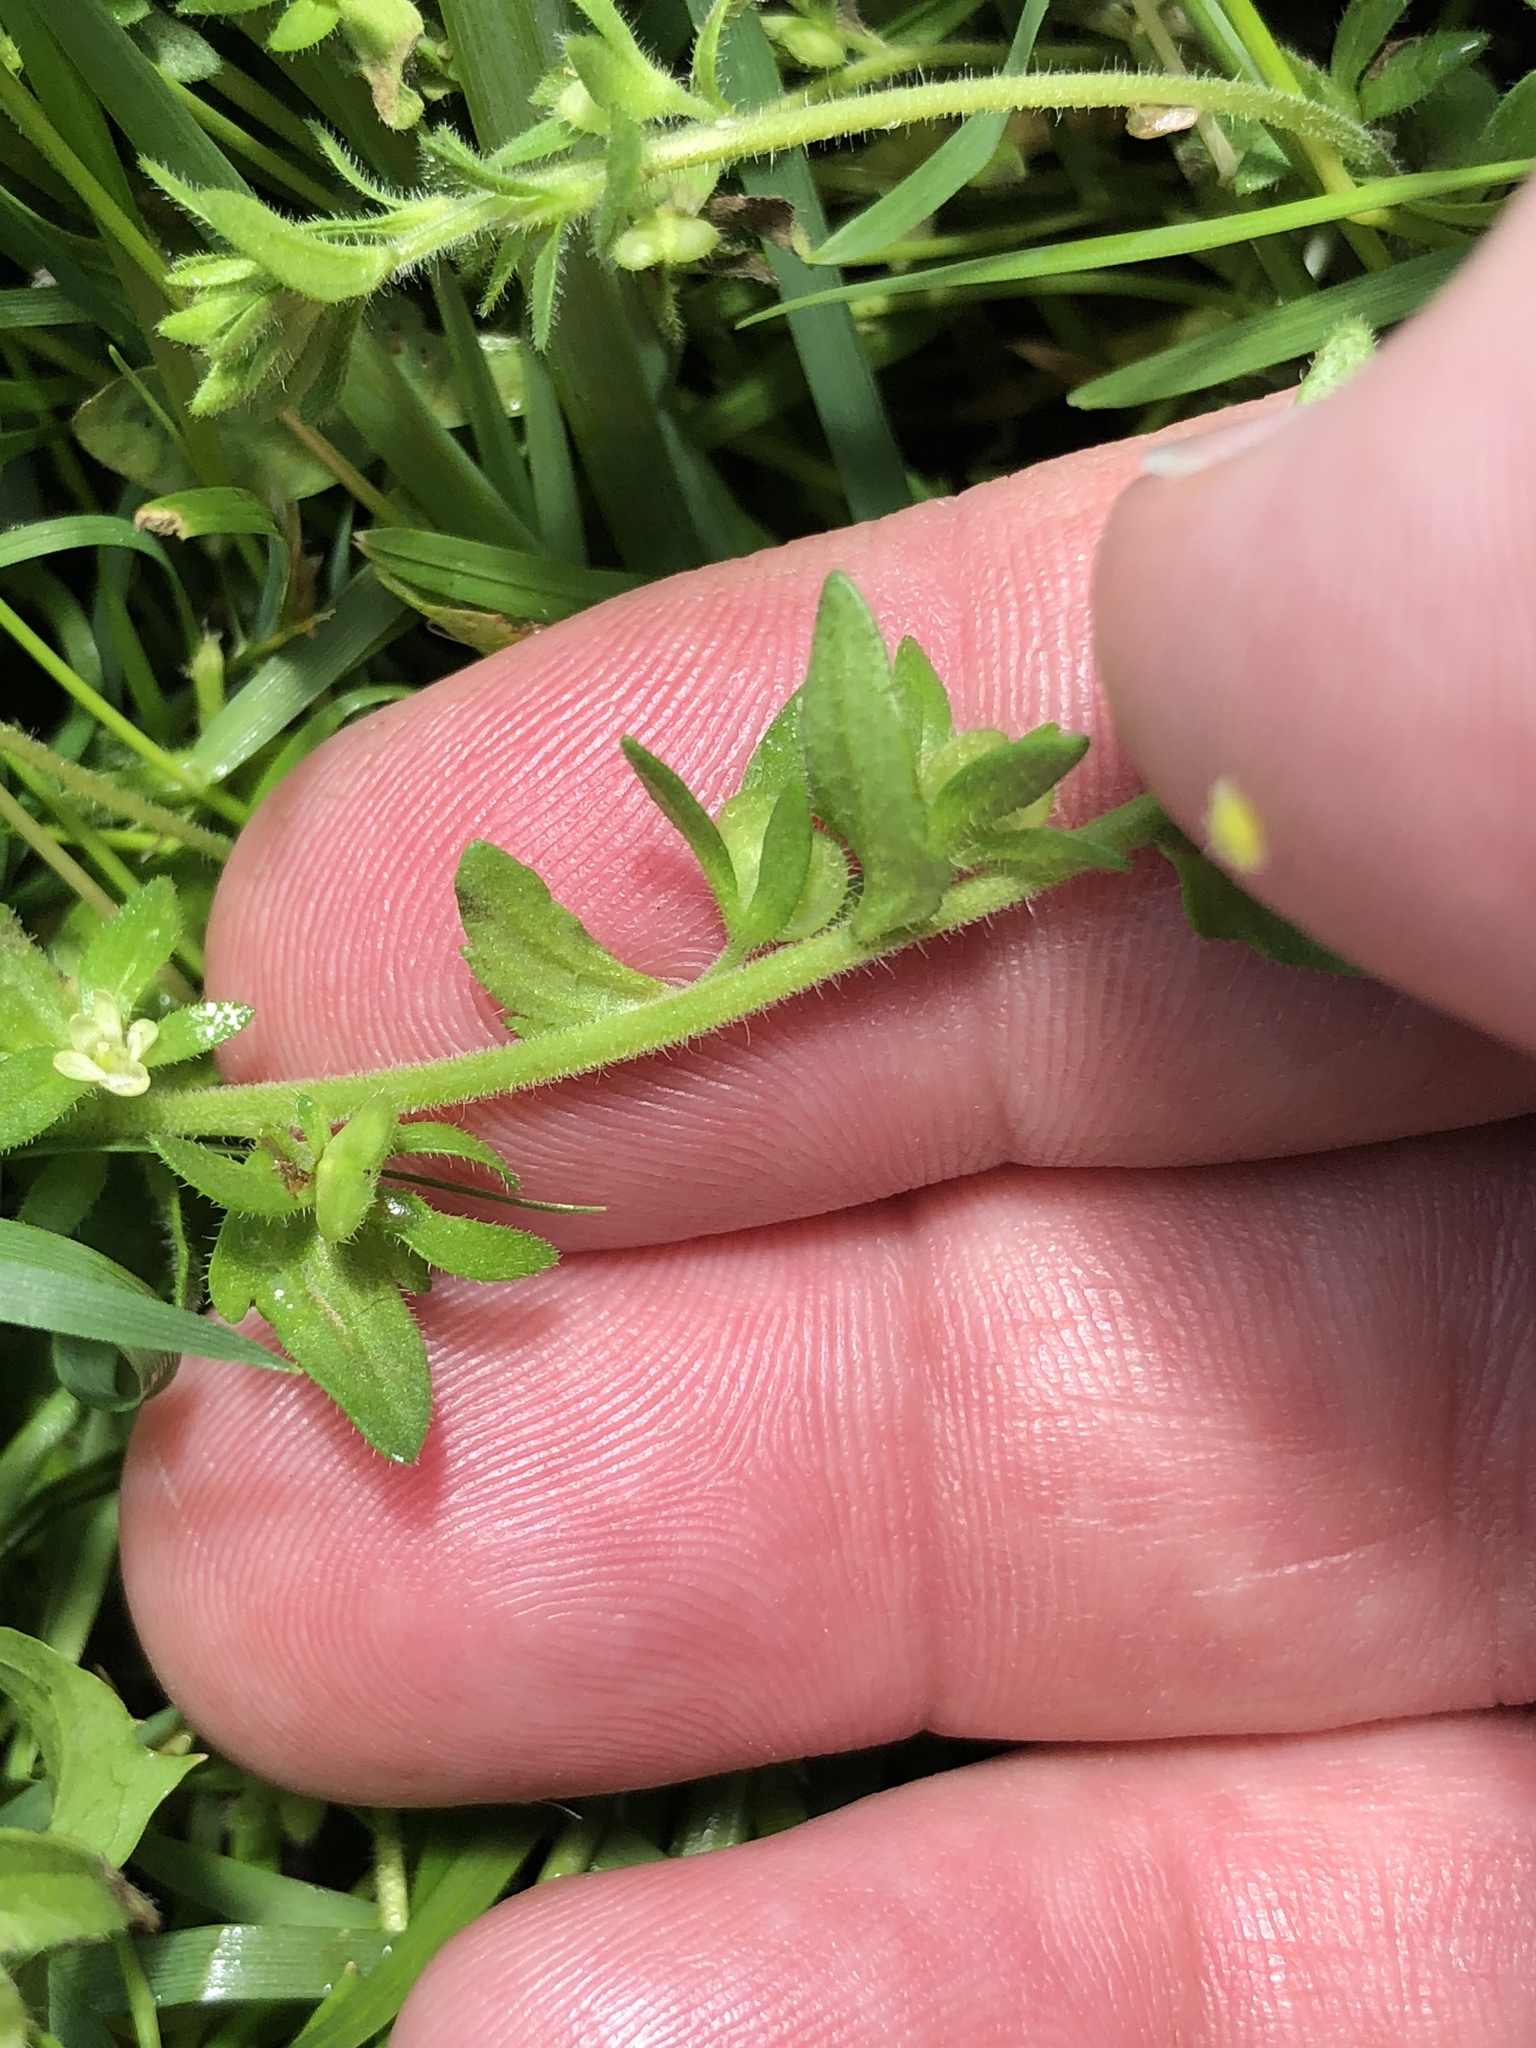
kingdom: Plantae
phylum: Tracheophyta
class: Magnoliopsida
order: Lamiales
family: Plantaginaceae
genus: Veronica
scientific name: Veronica arvensis
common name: Corn speedwell
